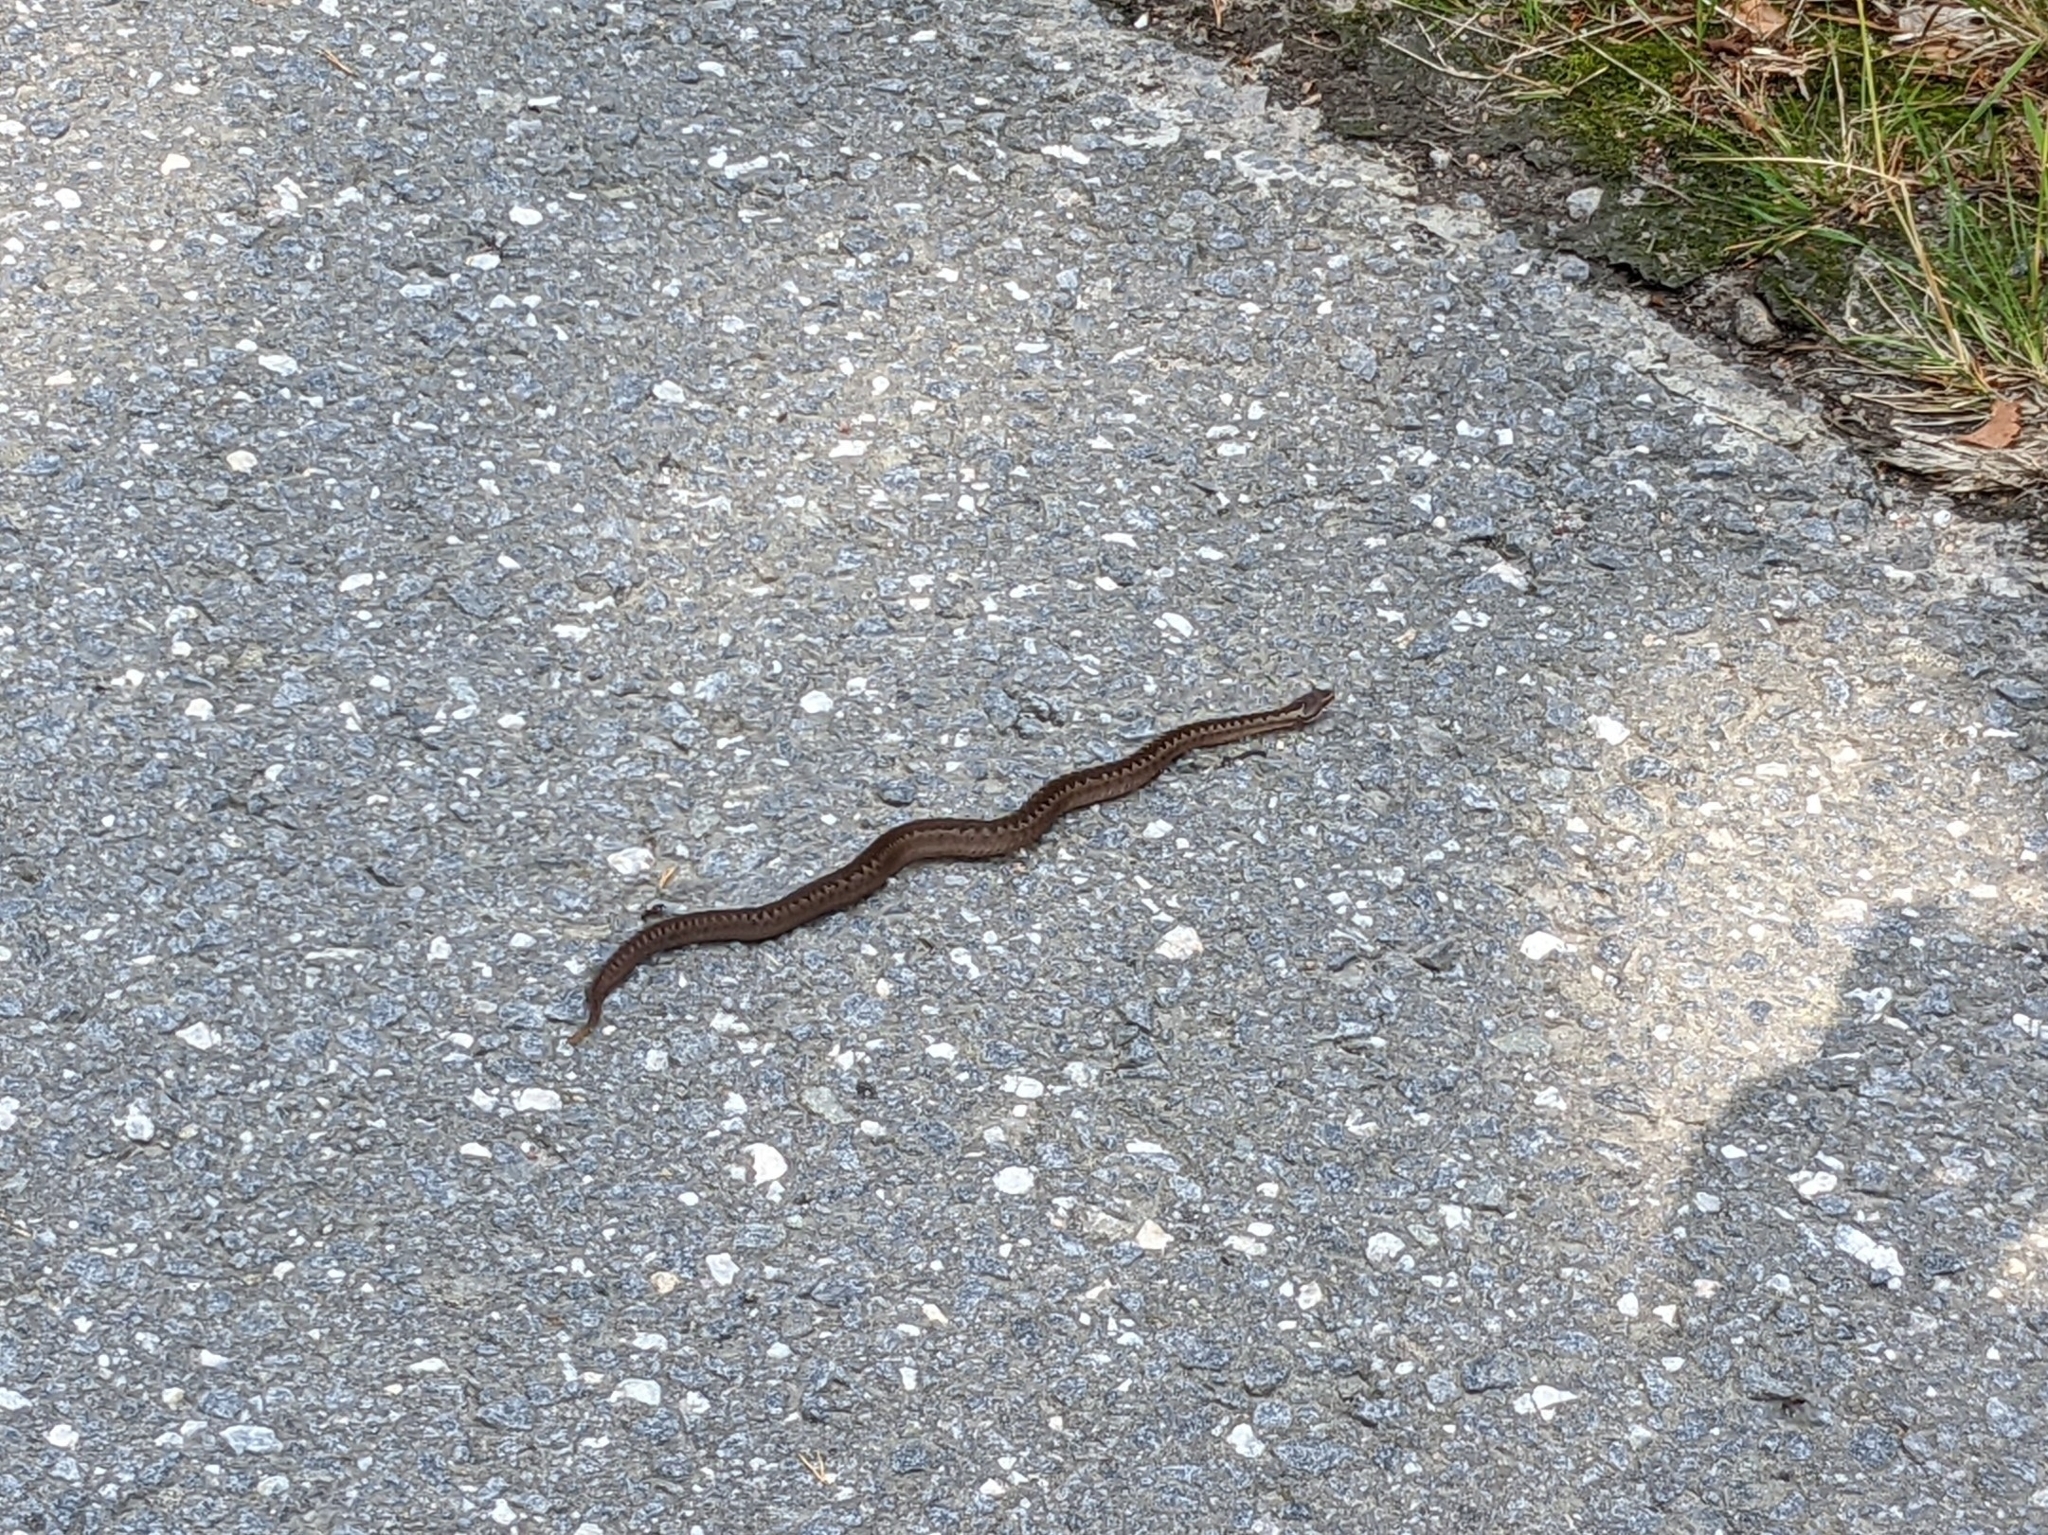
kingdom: Animalia
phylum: Chordata
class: Squamata
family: Viperidae
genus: Vipera
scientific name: Vipera berus
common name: Adder
